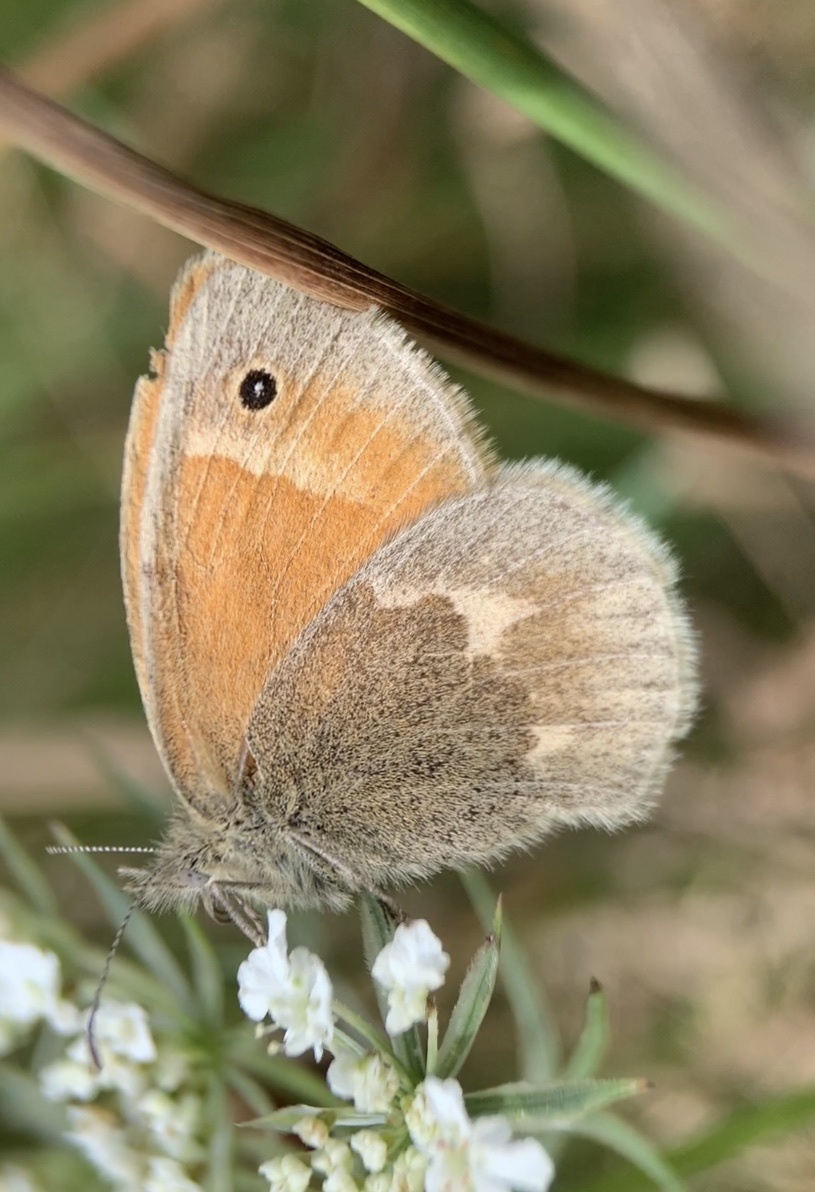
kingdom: Animalia
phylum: Arthropoda
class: Insecta
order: Lepidoptera
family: Nymphalidae
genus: Coenonympha
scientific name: Coenonympha california
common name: Common ringlet
